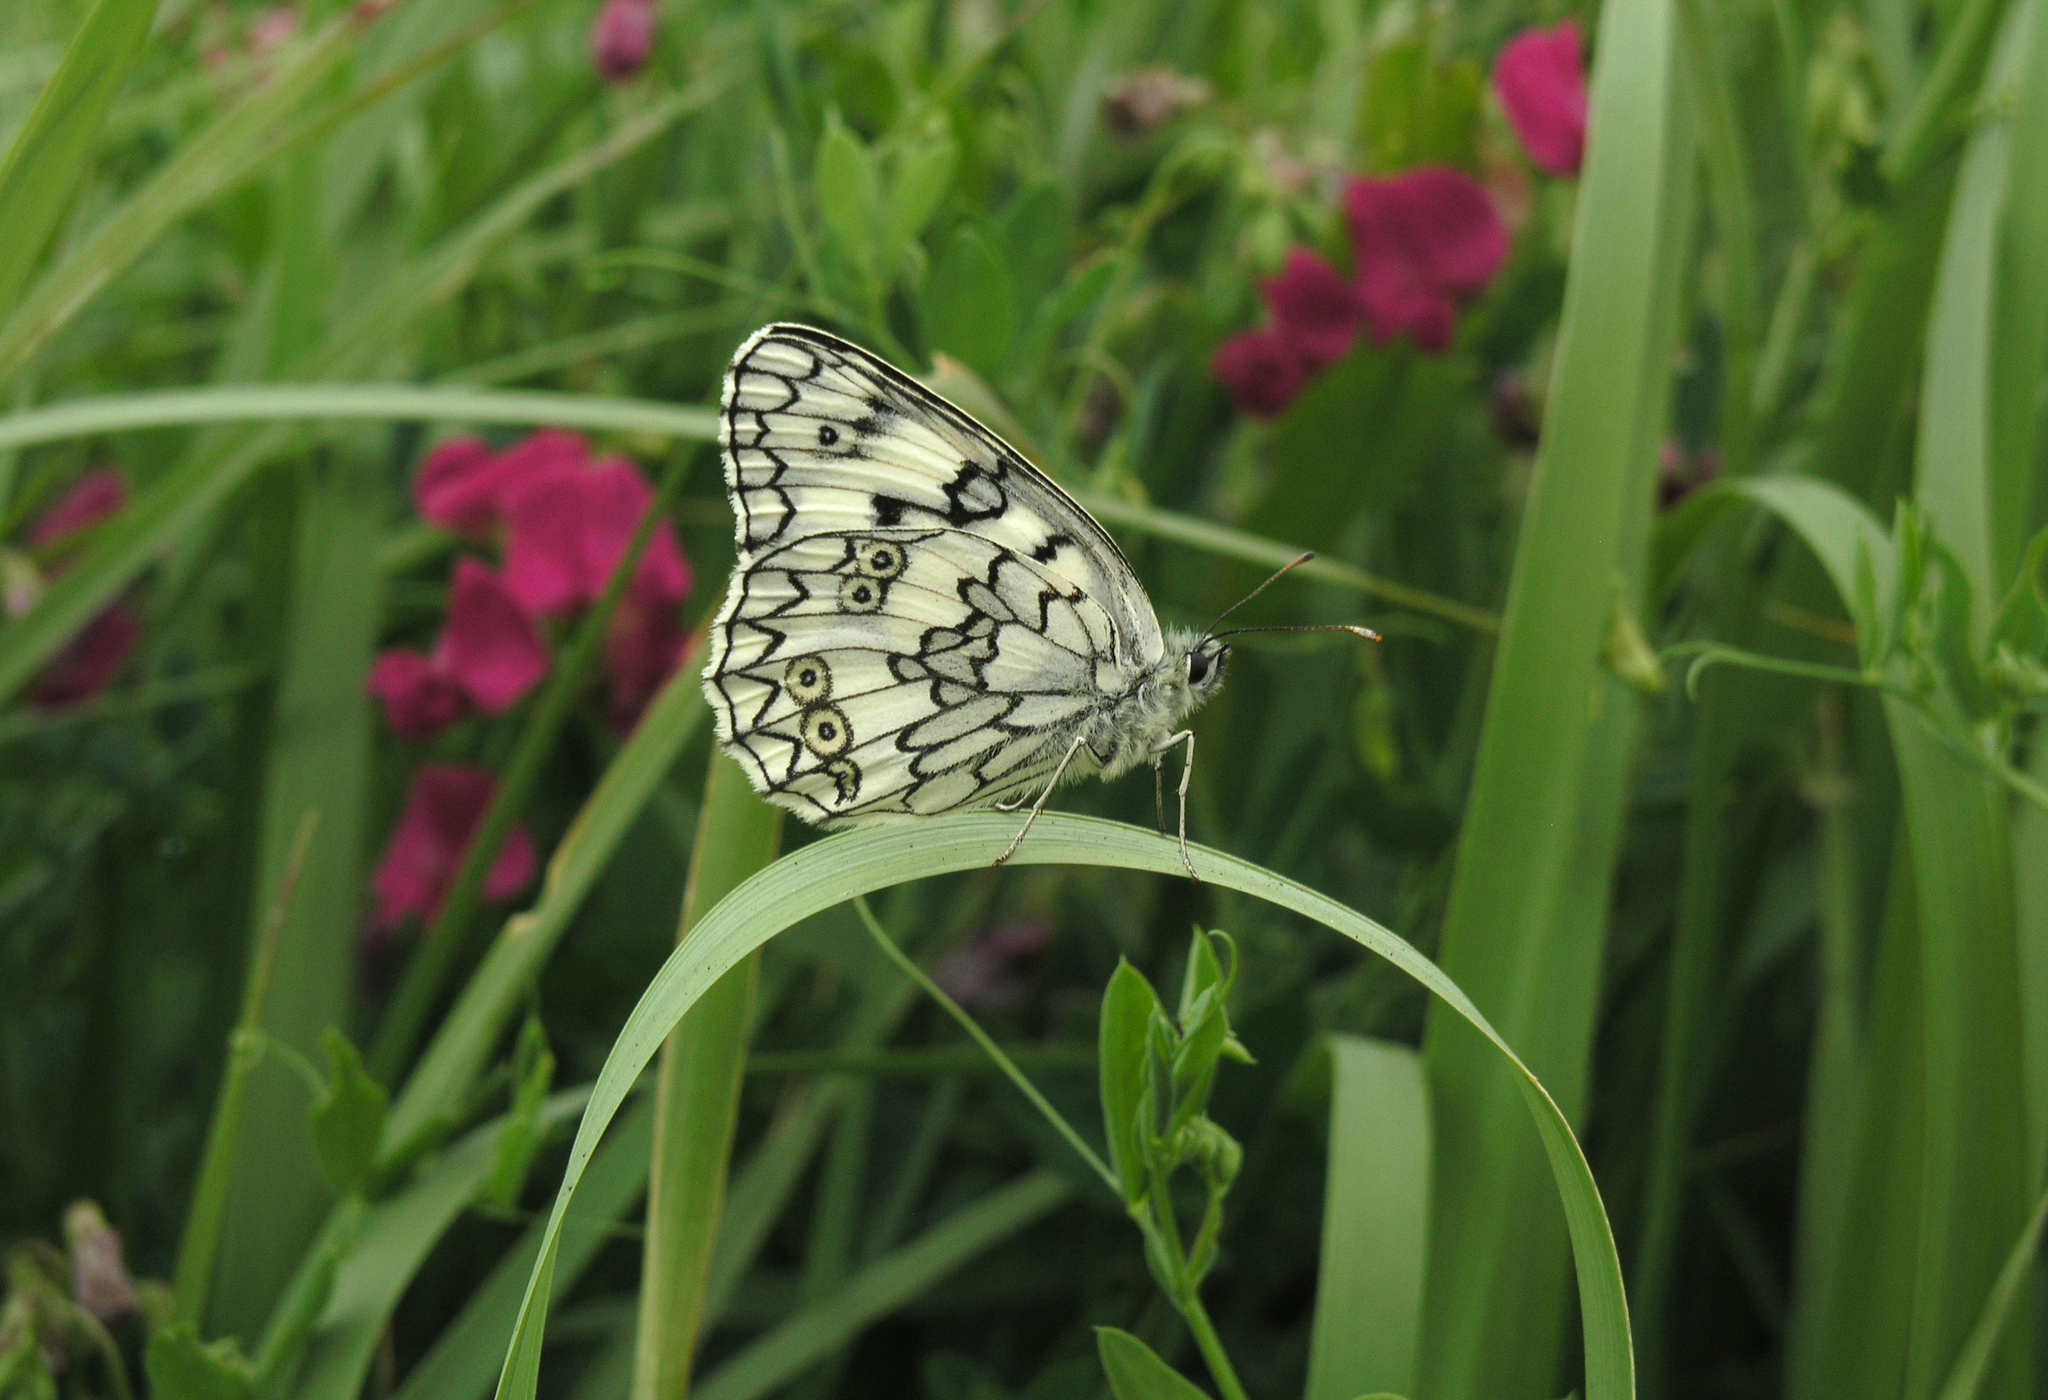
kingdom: Animalia
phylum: Arthropoda
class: Insecta
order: Lepidoptera
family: Nymphalidae
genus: Melanargia
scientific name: Melanargia japygia
